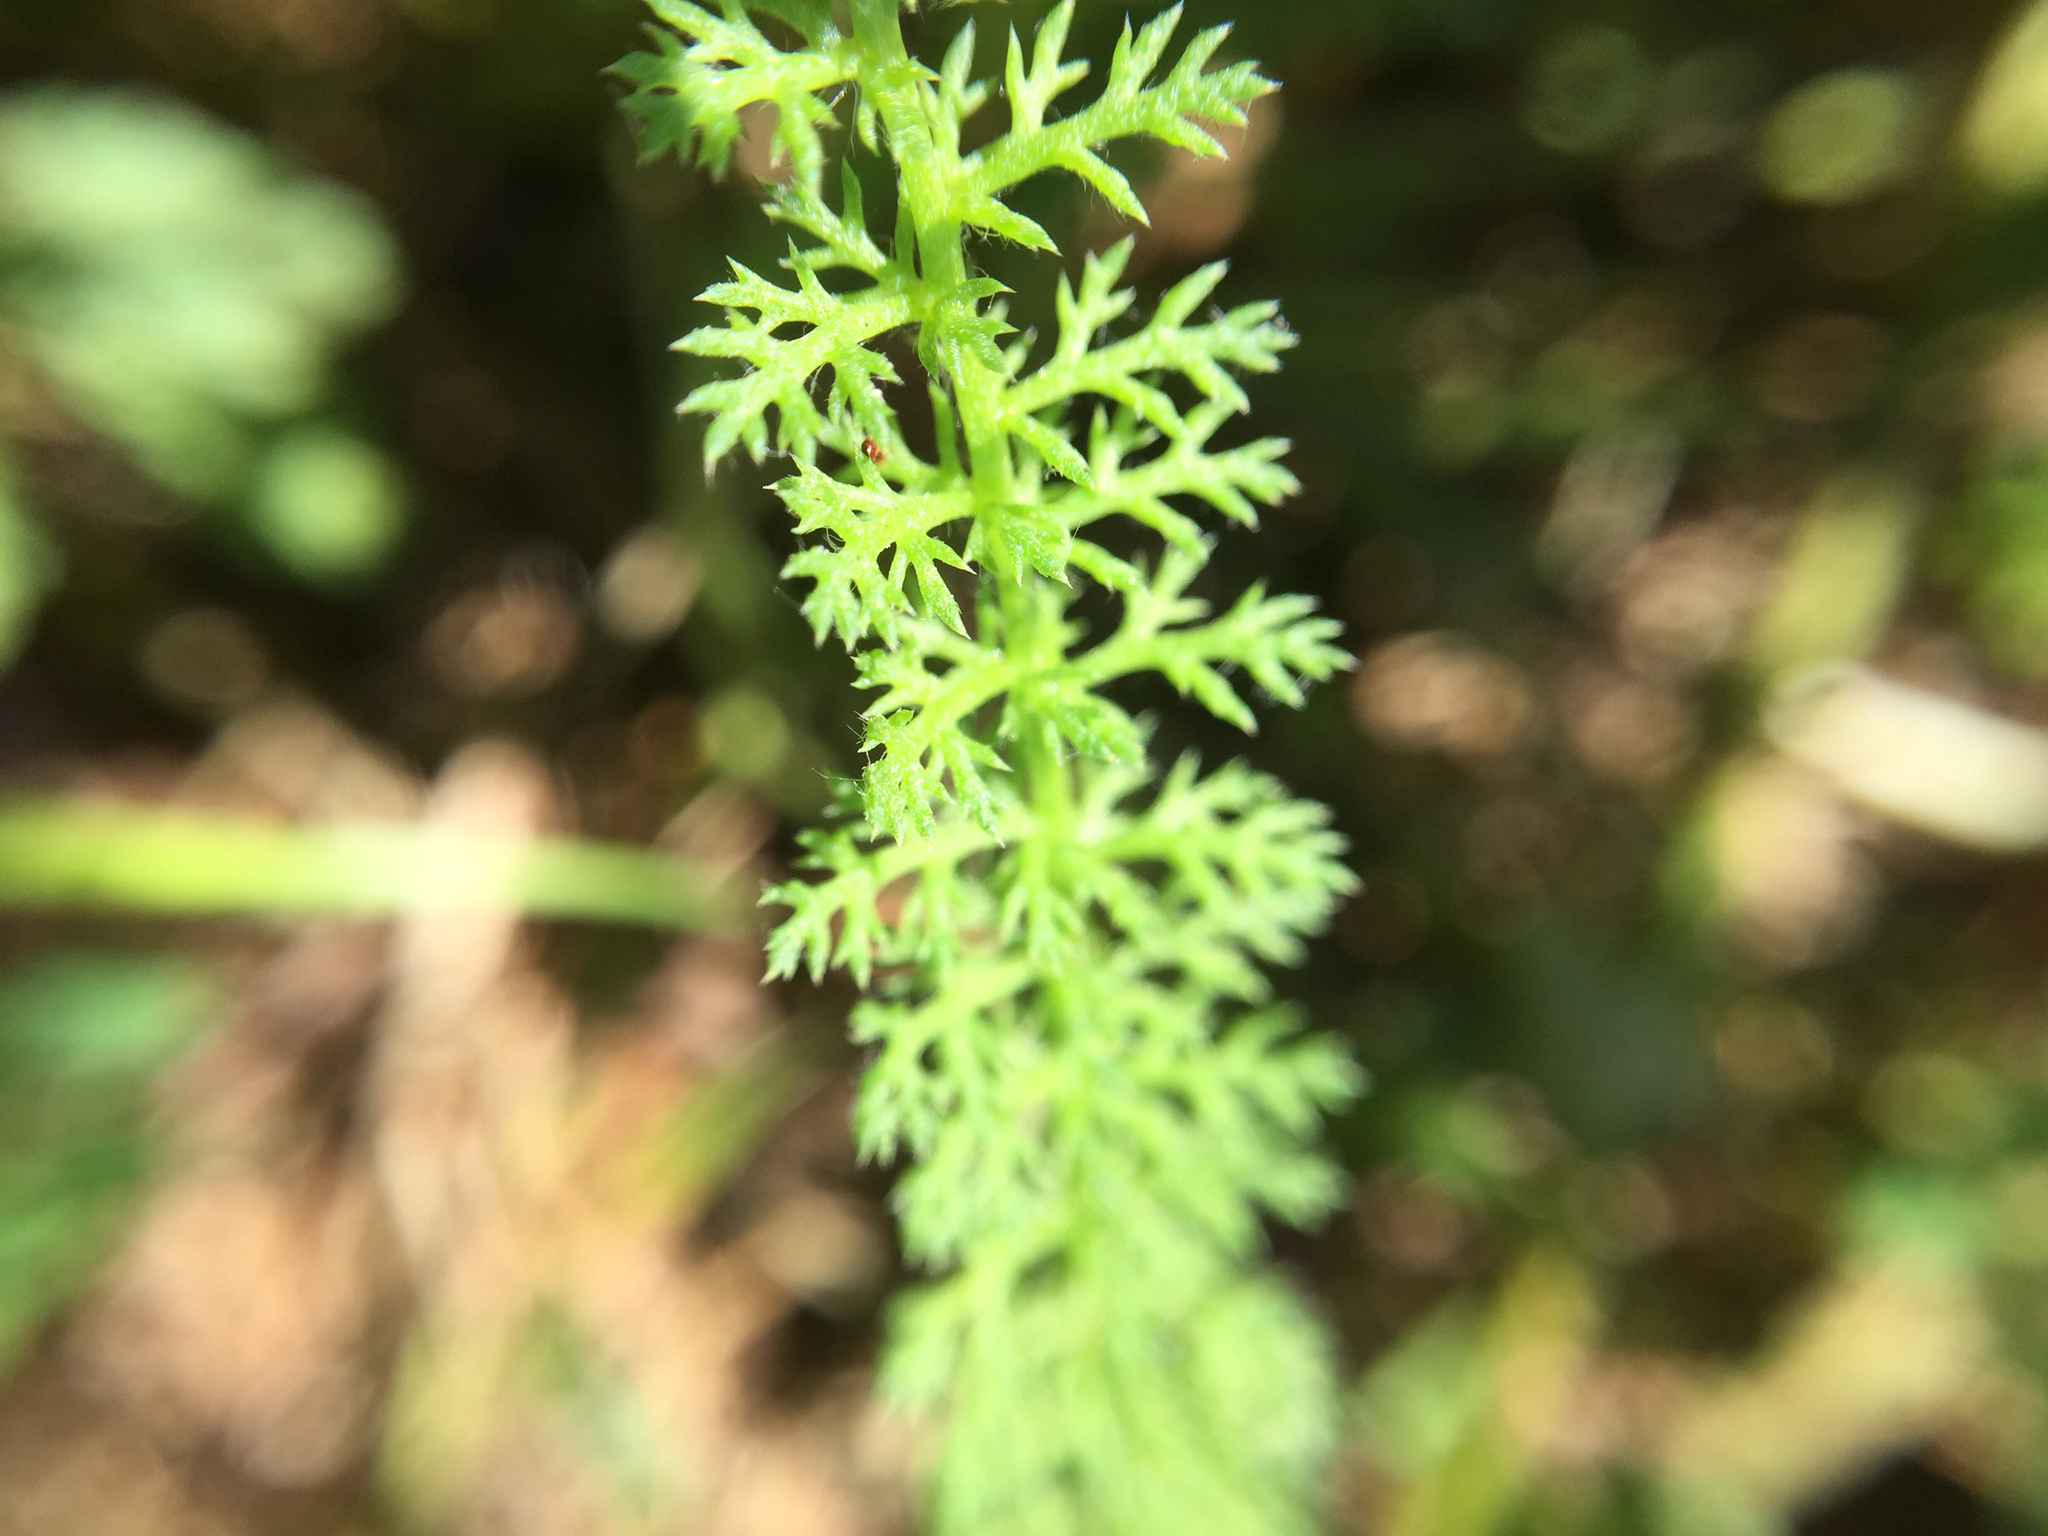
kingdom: Plantae
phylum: Tracheophyta
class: Magnoliopsida
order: Asterales
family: Asteraceae
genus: Achillea
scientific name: Achillea millefolium
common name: Yarrow
